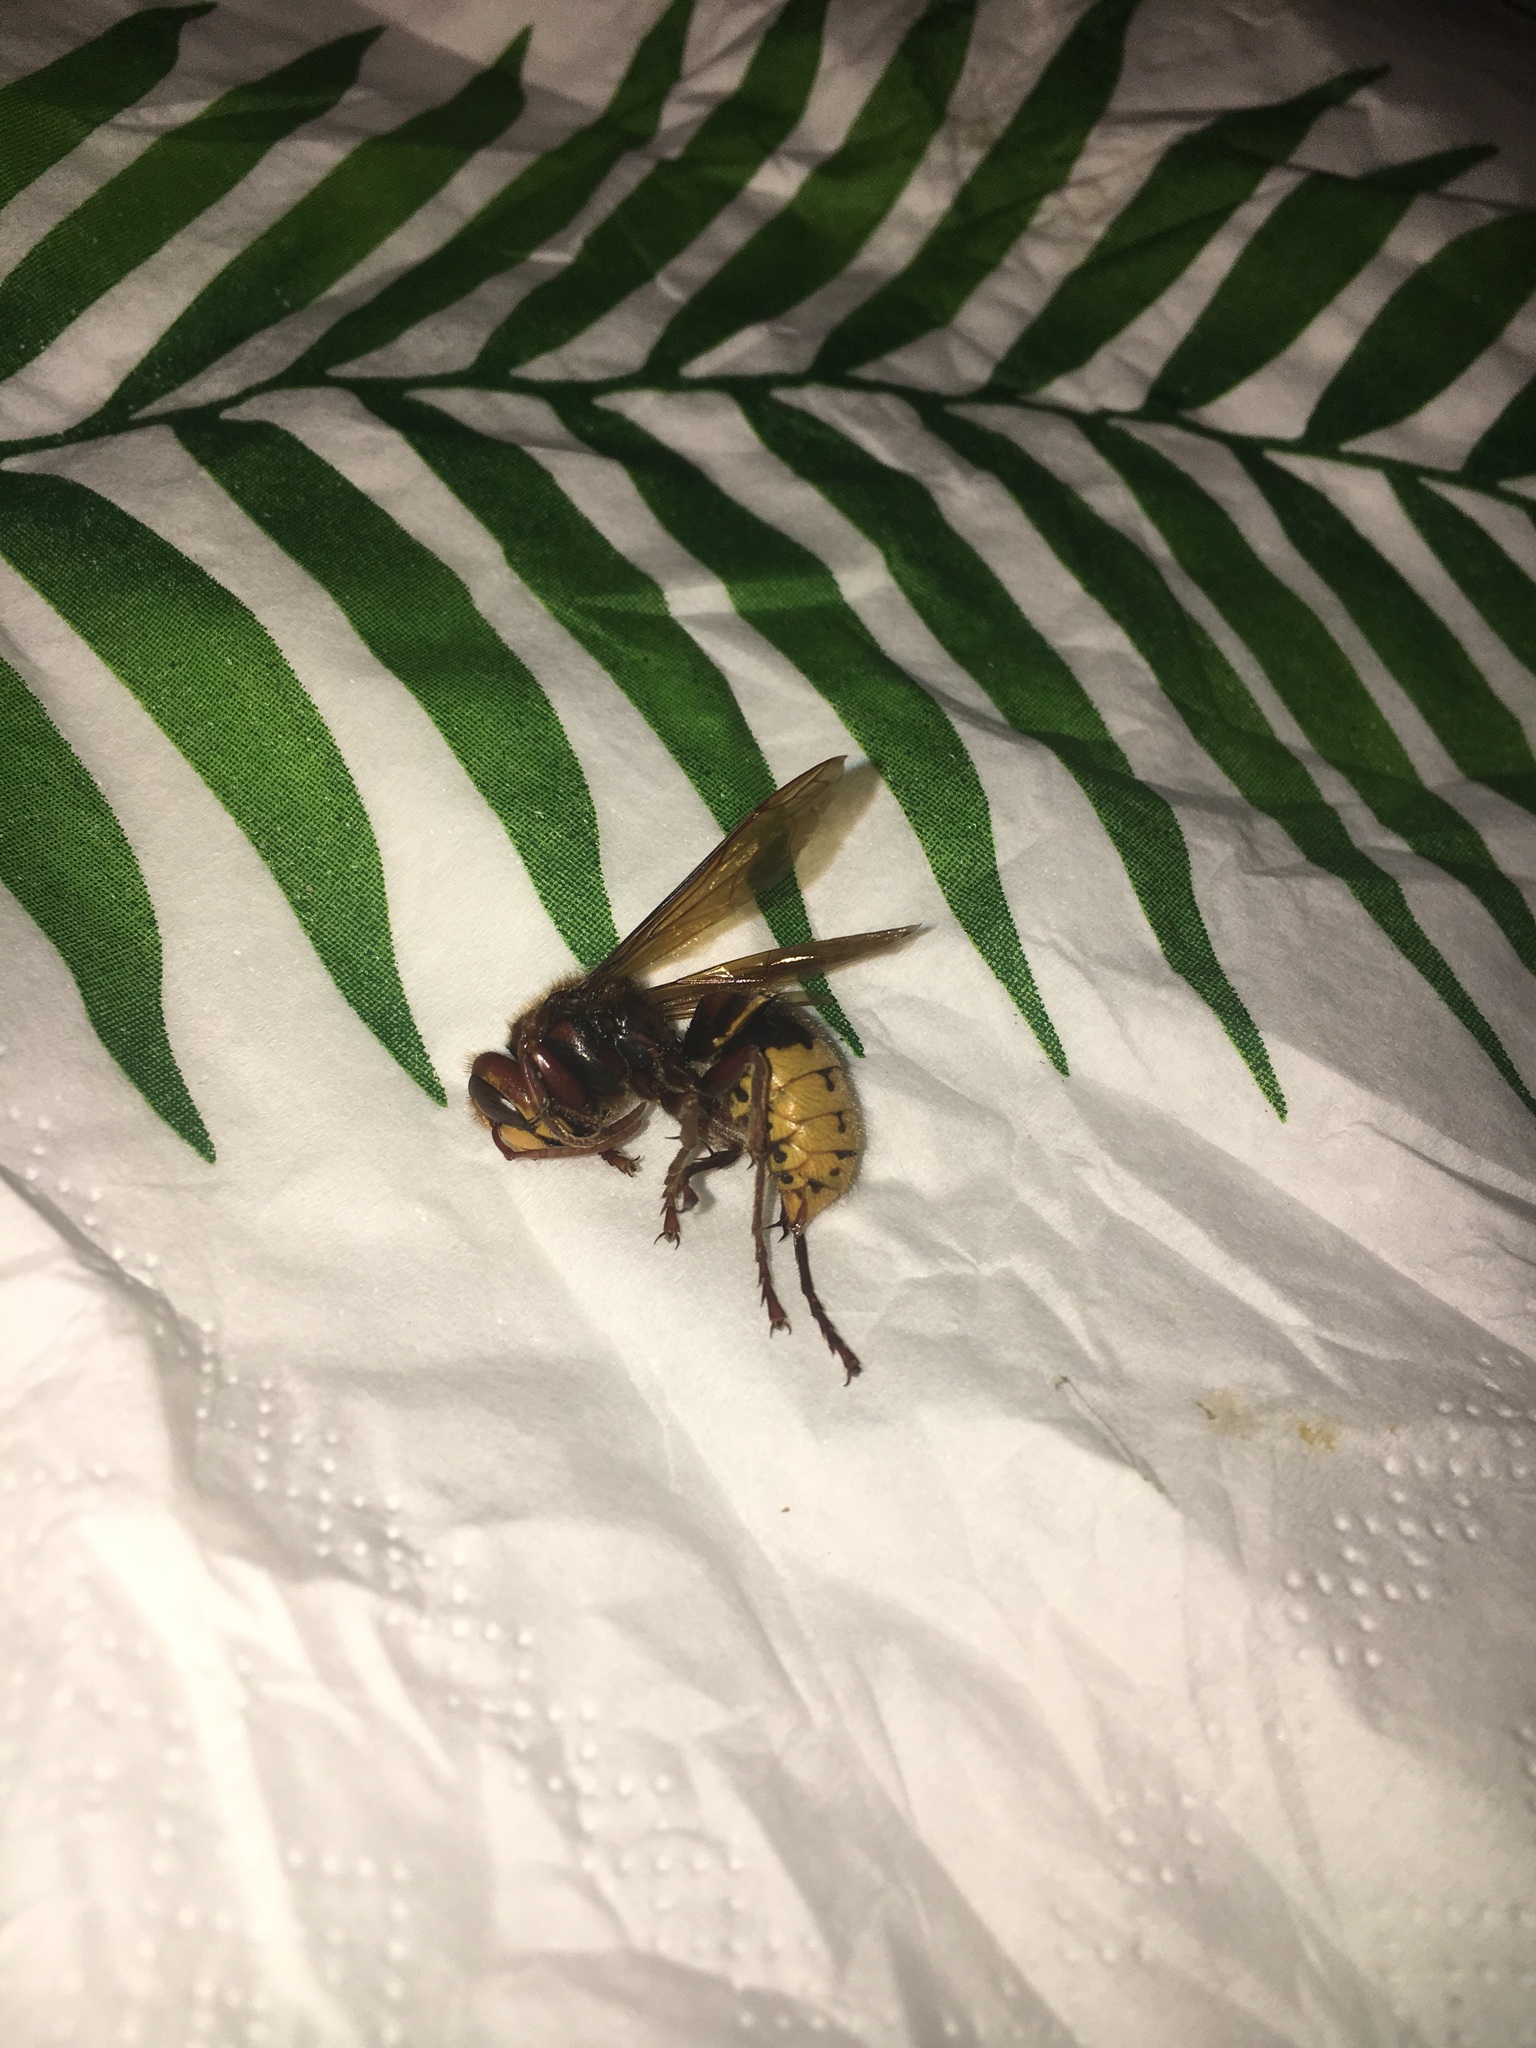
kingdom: Animalia
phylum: Arthropoda
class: Insecta
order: Hymenoptera
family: Vespidae
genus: Vespa
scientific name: Vespa crabro
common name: Hornet
